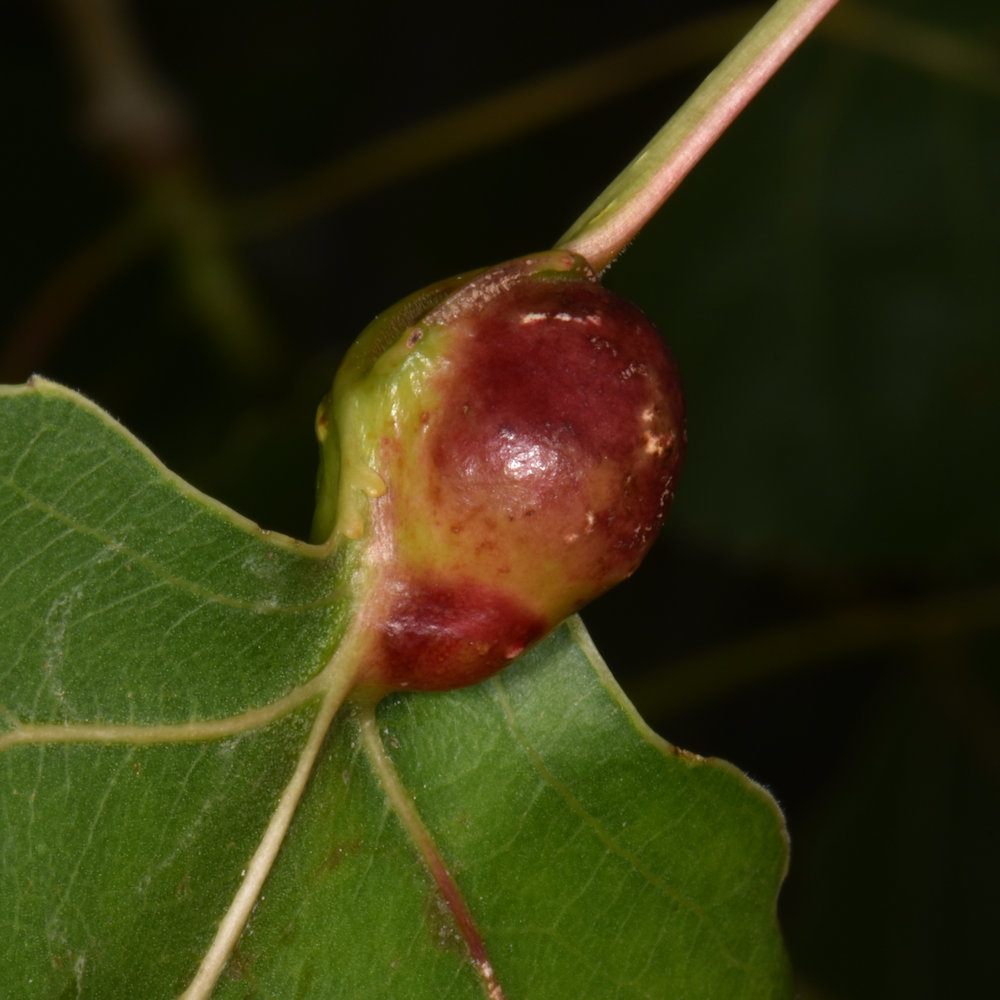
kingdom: Animalia
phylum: Arthropoda
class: Insecta
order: Hemiptera
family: Aphididae
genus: Pemphigus
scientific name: Pemphigus populicaulis
